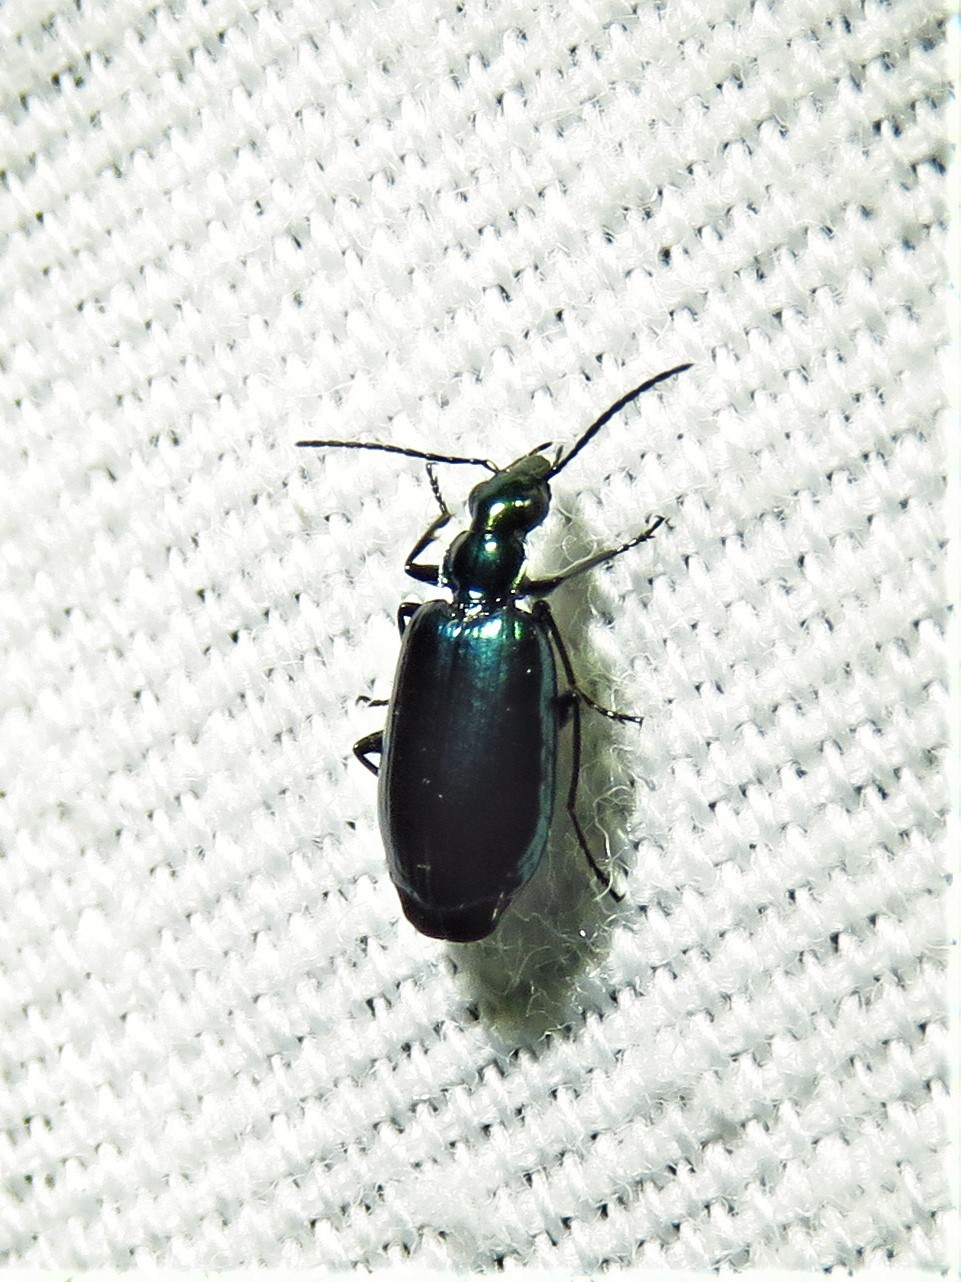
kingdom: Animalia
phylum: Arthropoda
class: Insecta
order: Coleoptera
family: Carabidae
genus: Lebia
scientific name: Lebia viridis
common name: Flower lebia beetle
